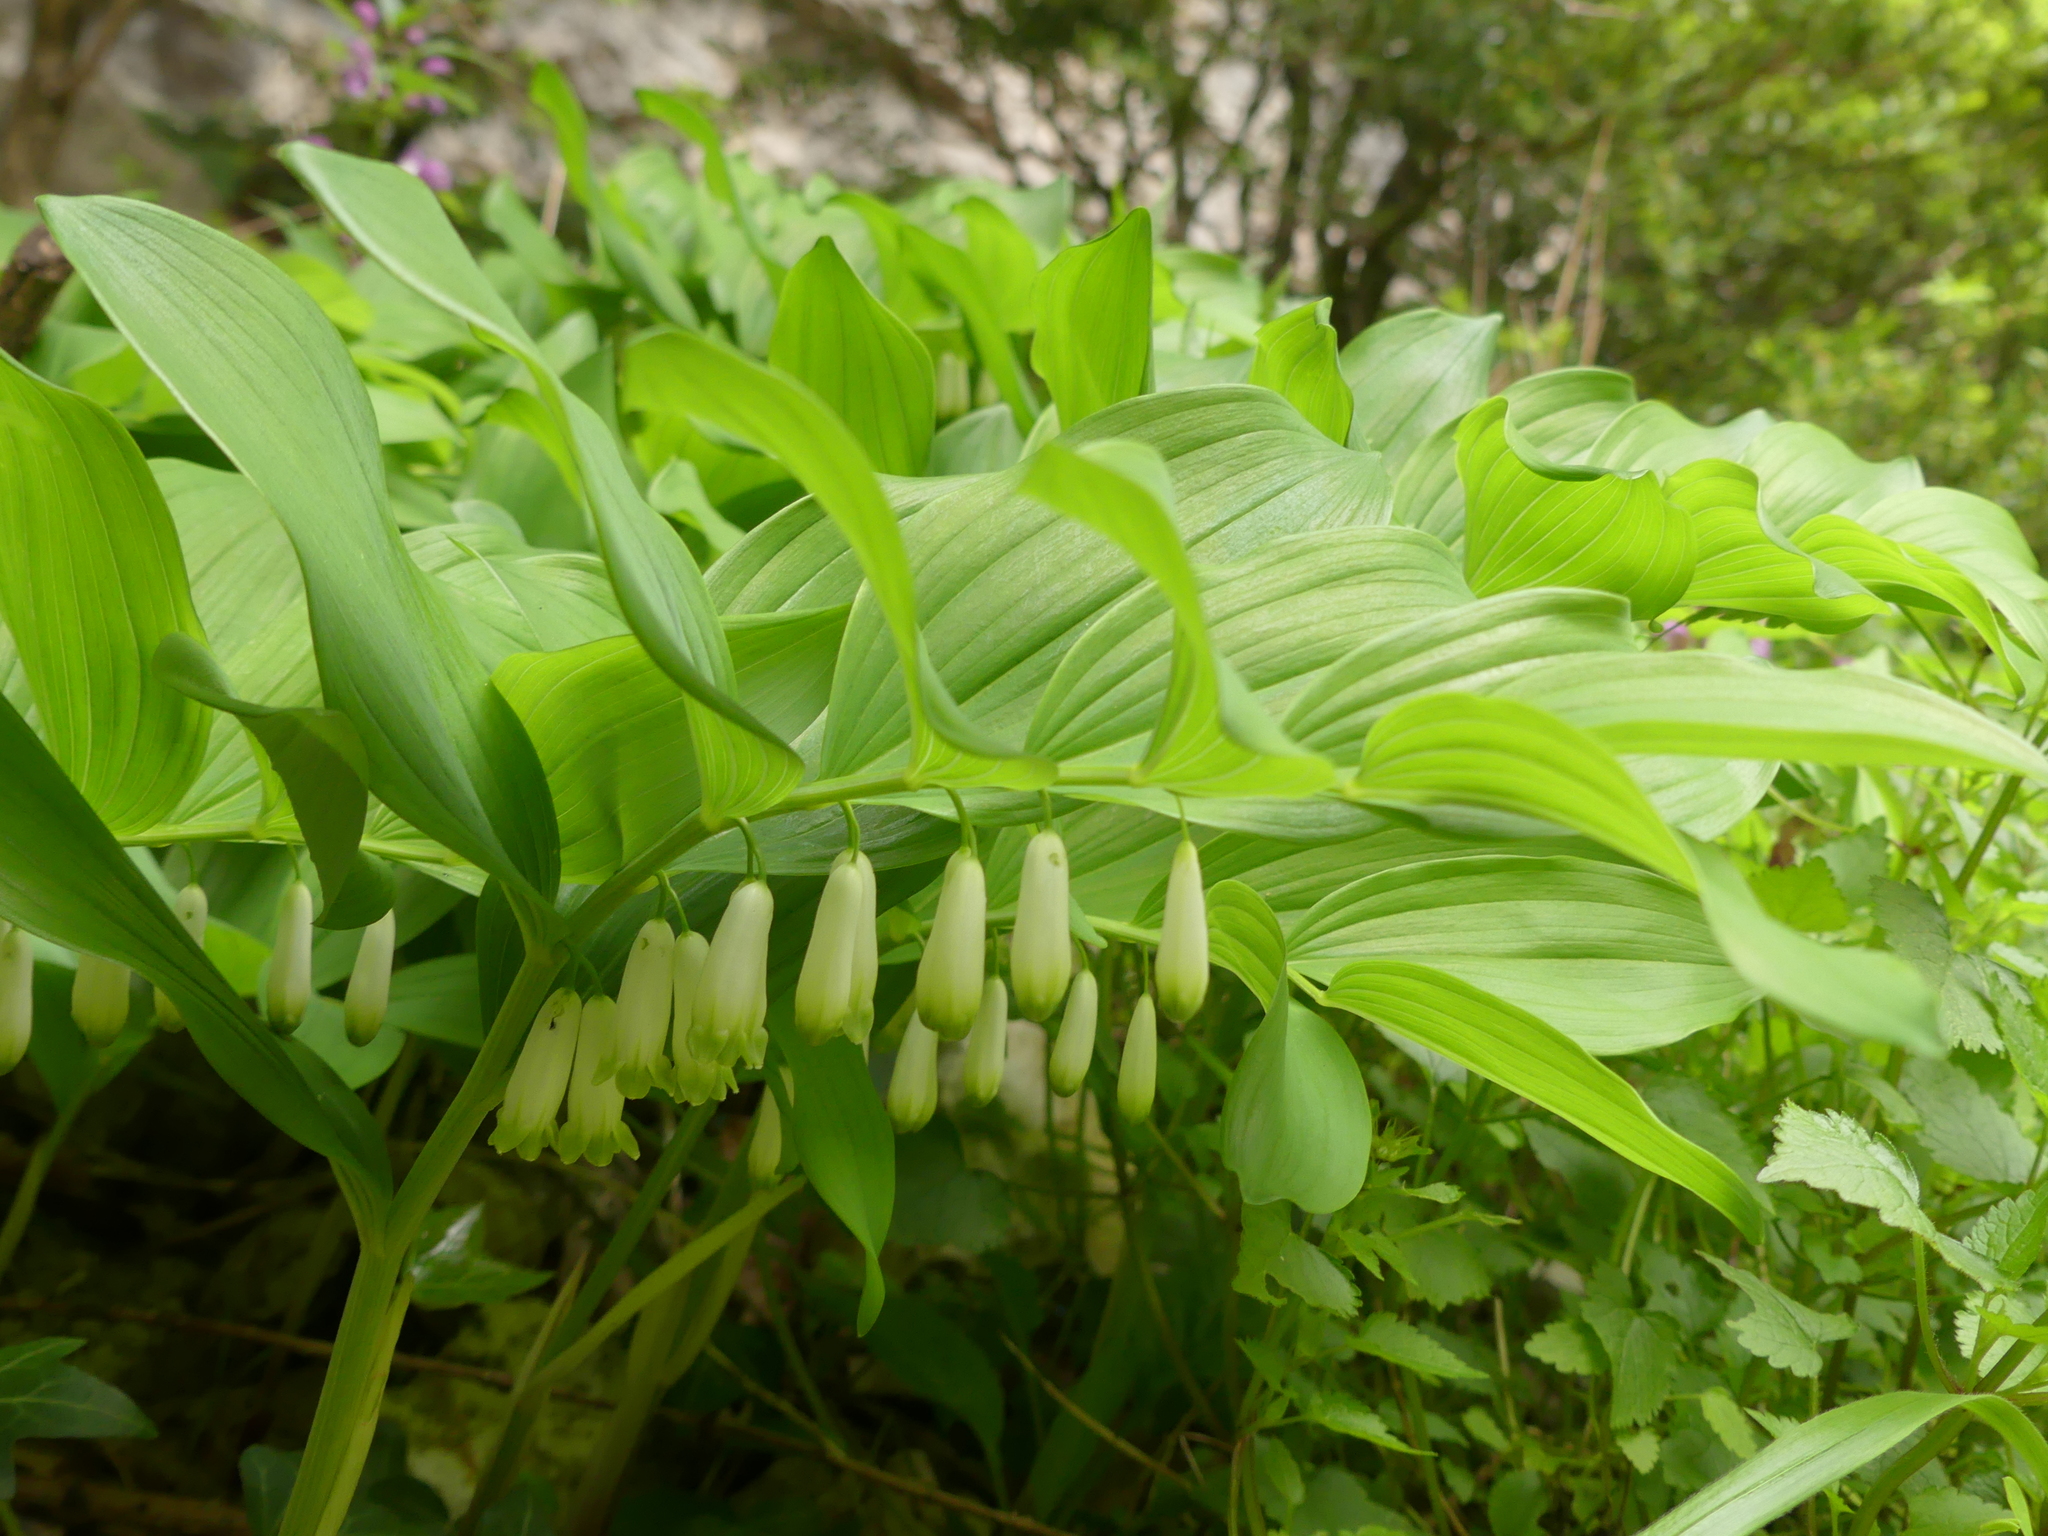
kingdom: Plantae
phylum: Tracheophyta
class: Liliopsida
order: Asparagales
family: Asparagaceae
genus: Polygonatum
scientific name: Polygonatum odoratum
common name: Angular solomon's-seal
